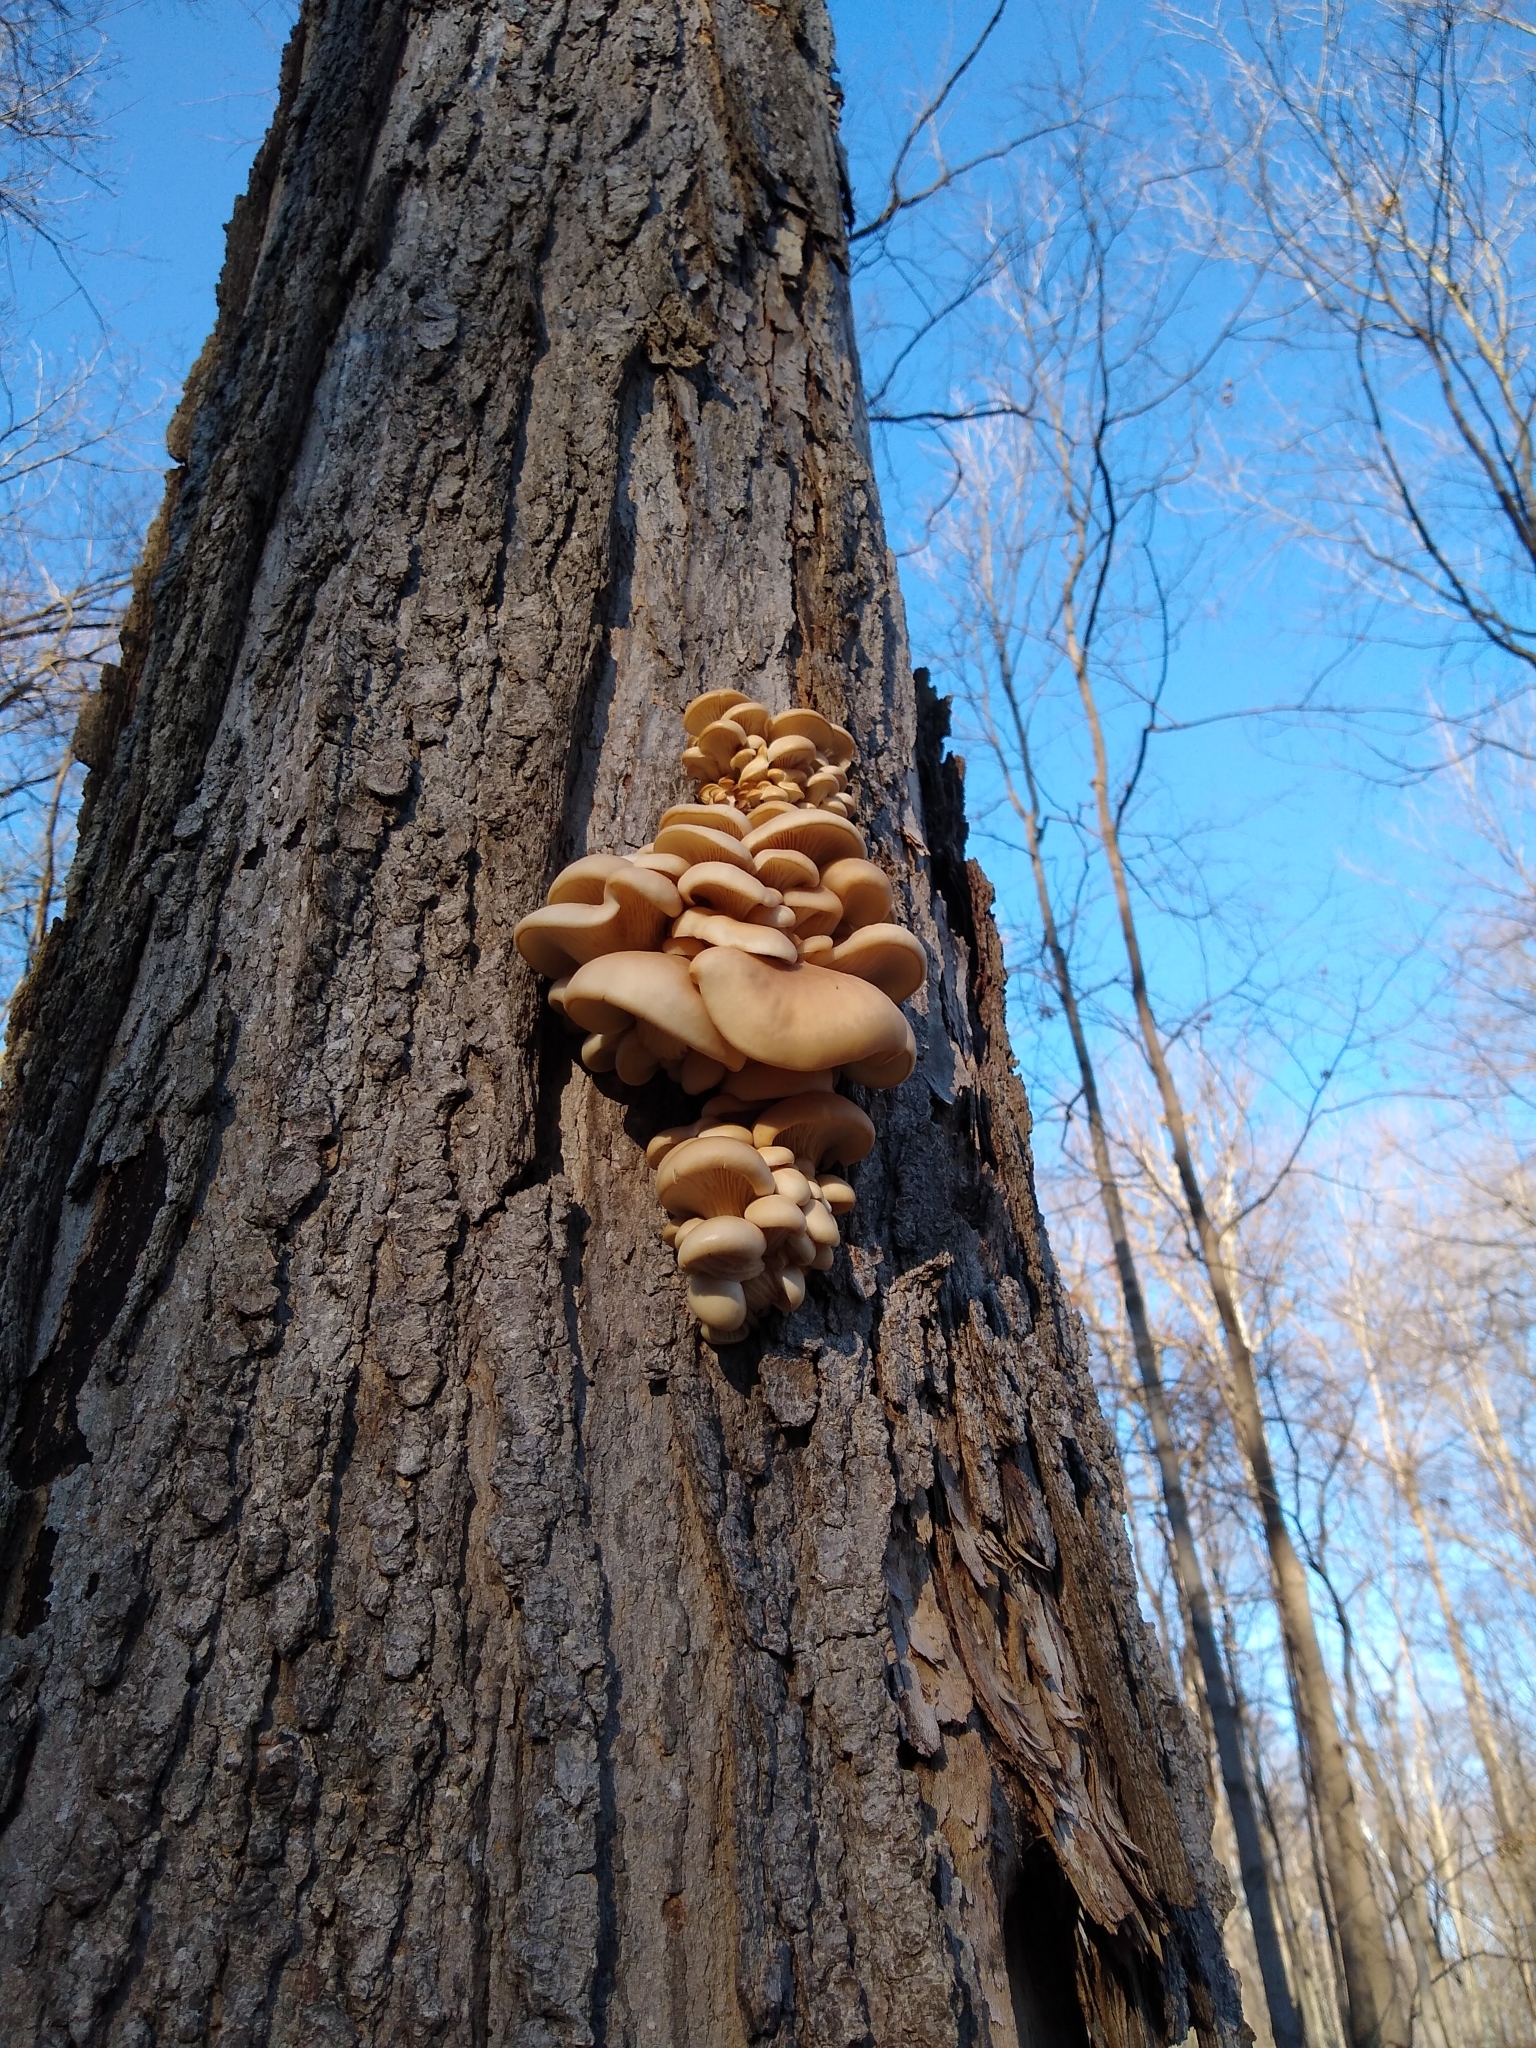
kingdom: Fungi
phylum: Basidiomycota
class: Agaricomycetes
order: Agaricales
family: Pleurotaceae
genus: Pleurotus
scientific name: Pleurotus ostreatus
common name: Oyster mushroom
